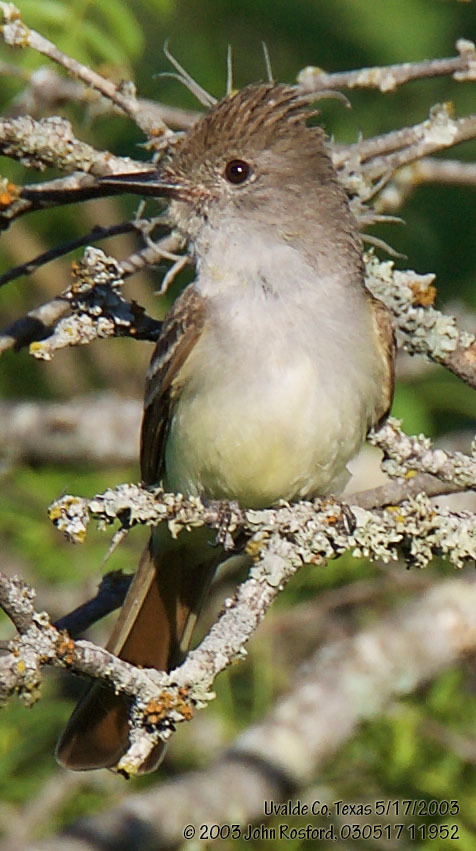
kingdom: Animalia
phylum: Chordata
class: Aves
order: Passeriformes
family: Tyrannidae
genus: Myiarchus
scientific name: Myiarchus cinerascens
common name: Ash-throated flycatcher
